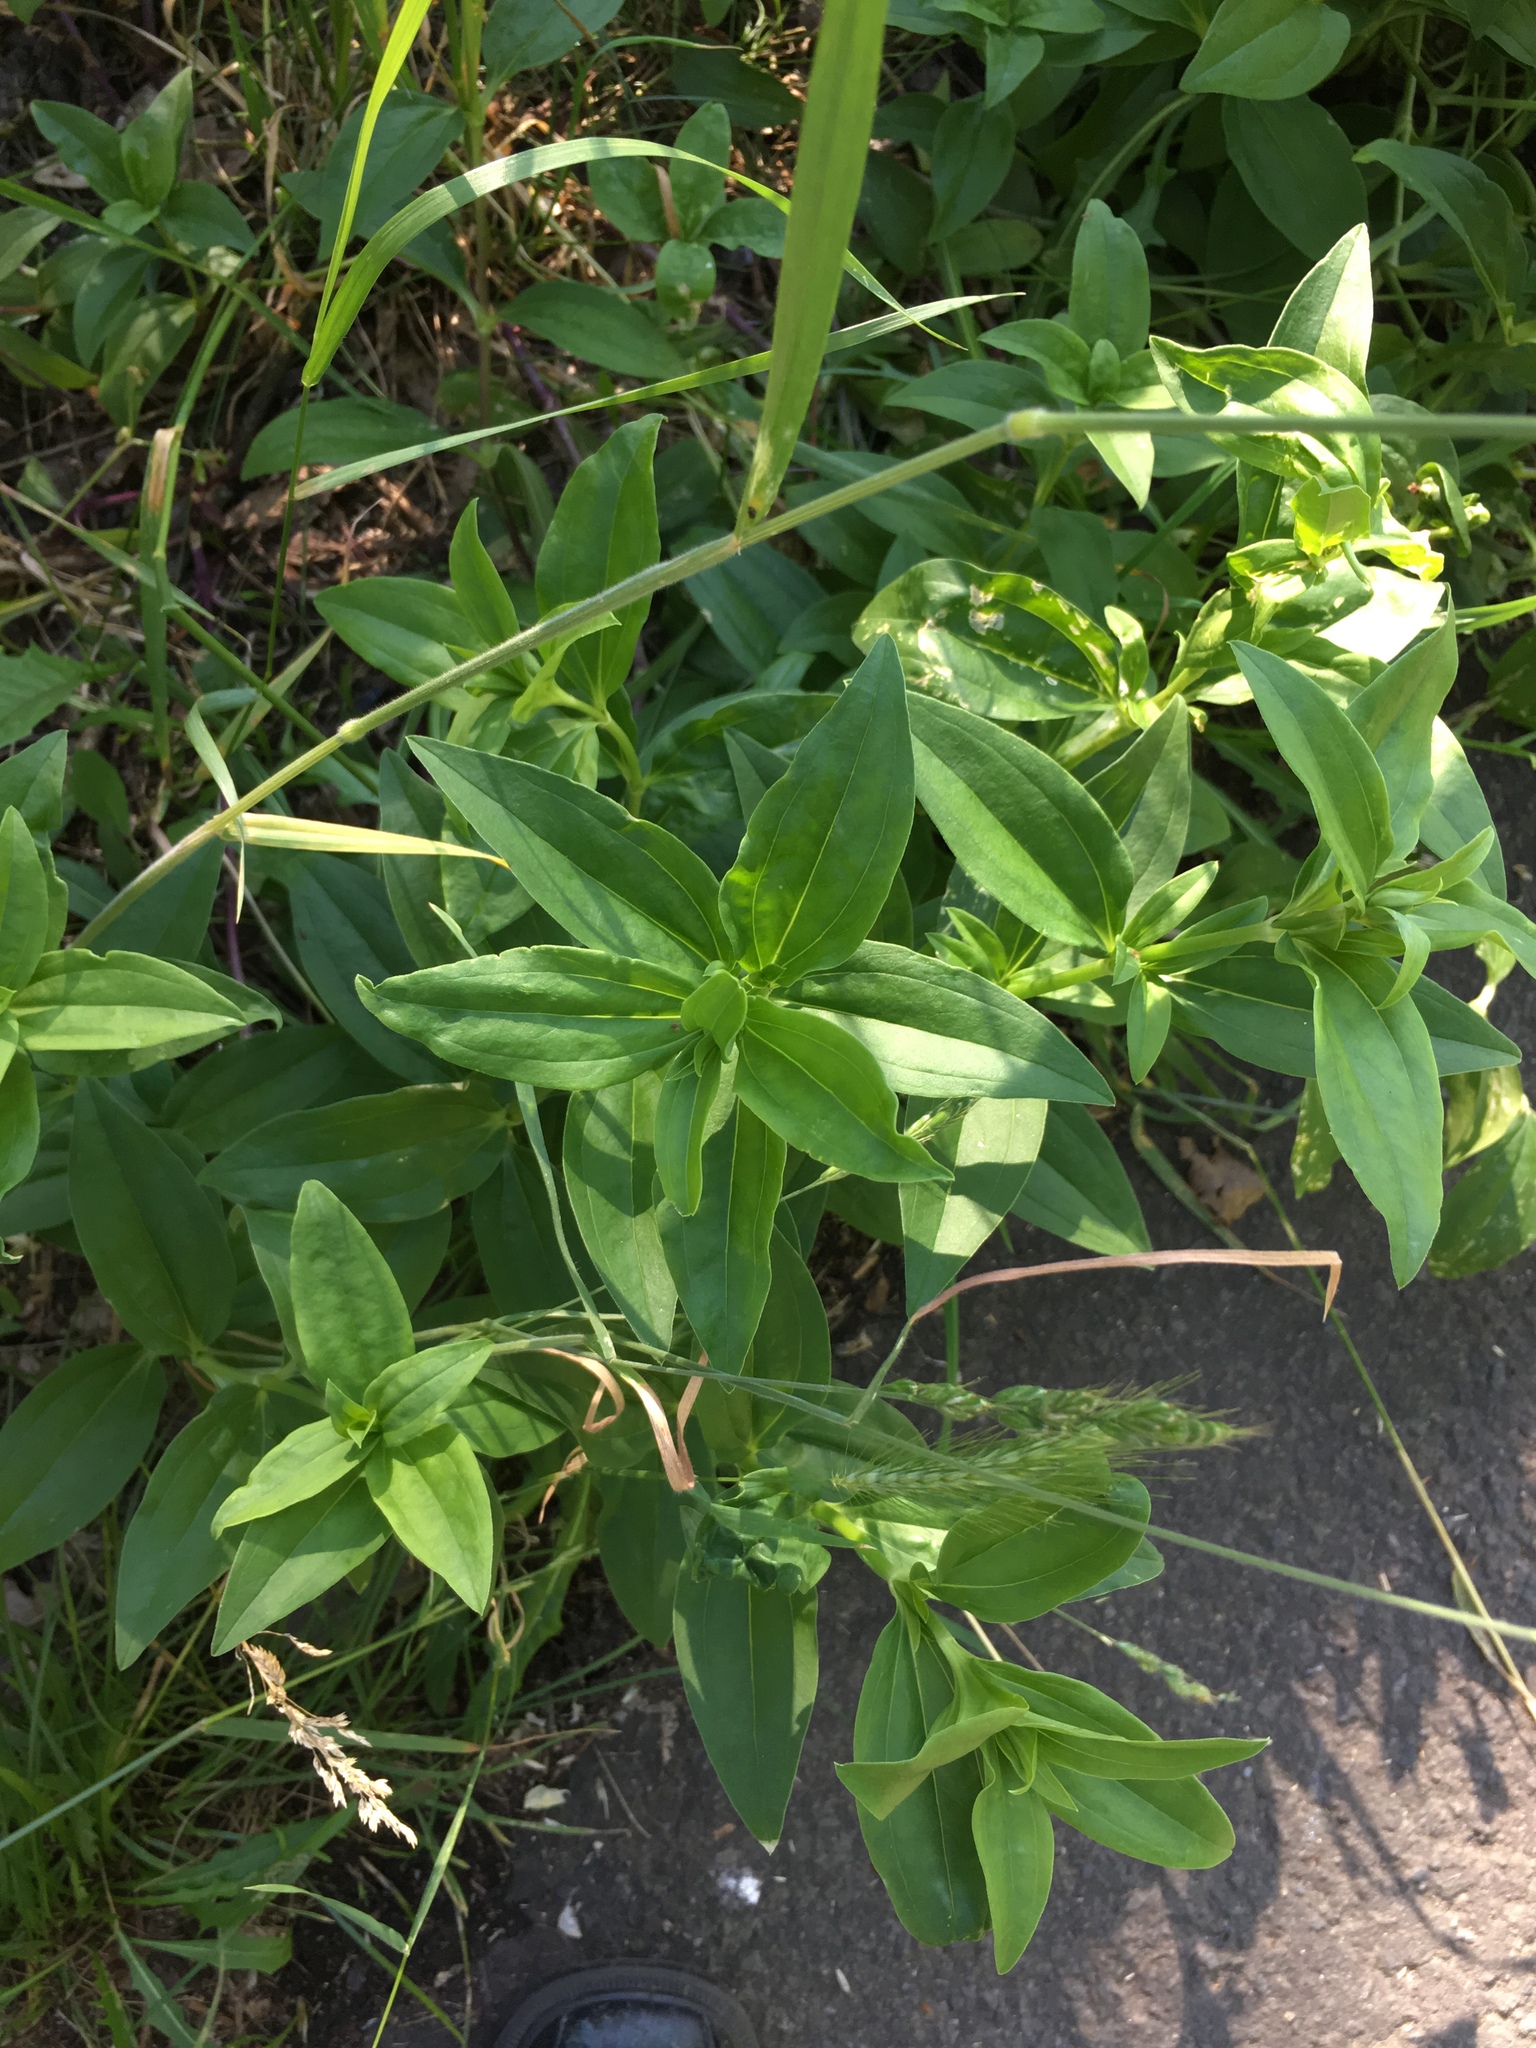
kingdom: Plantae
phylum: Tracheophyta
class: Magnoliopsida
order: Caryophyllales
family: Caryophyllaceae
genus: Saponaria
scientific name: Saponaria officinalis
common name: Soapwort
